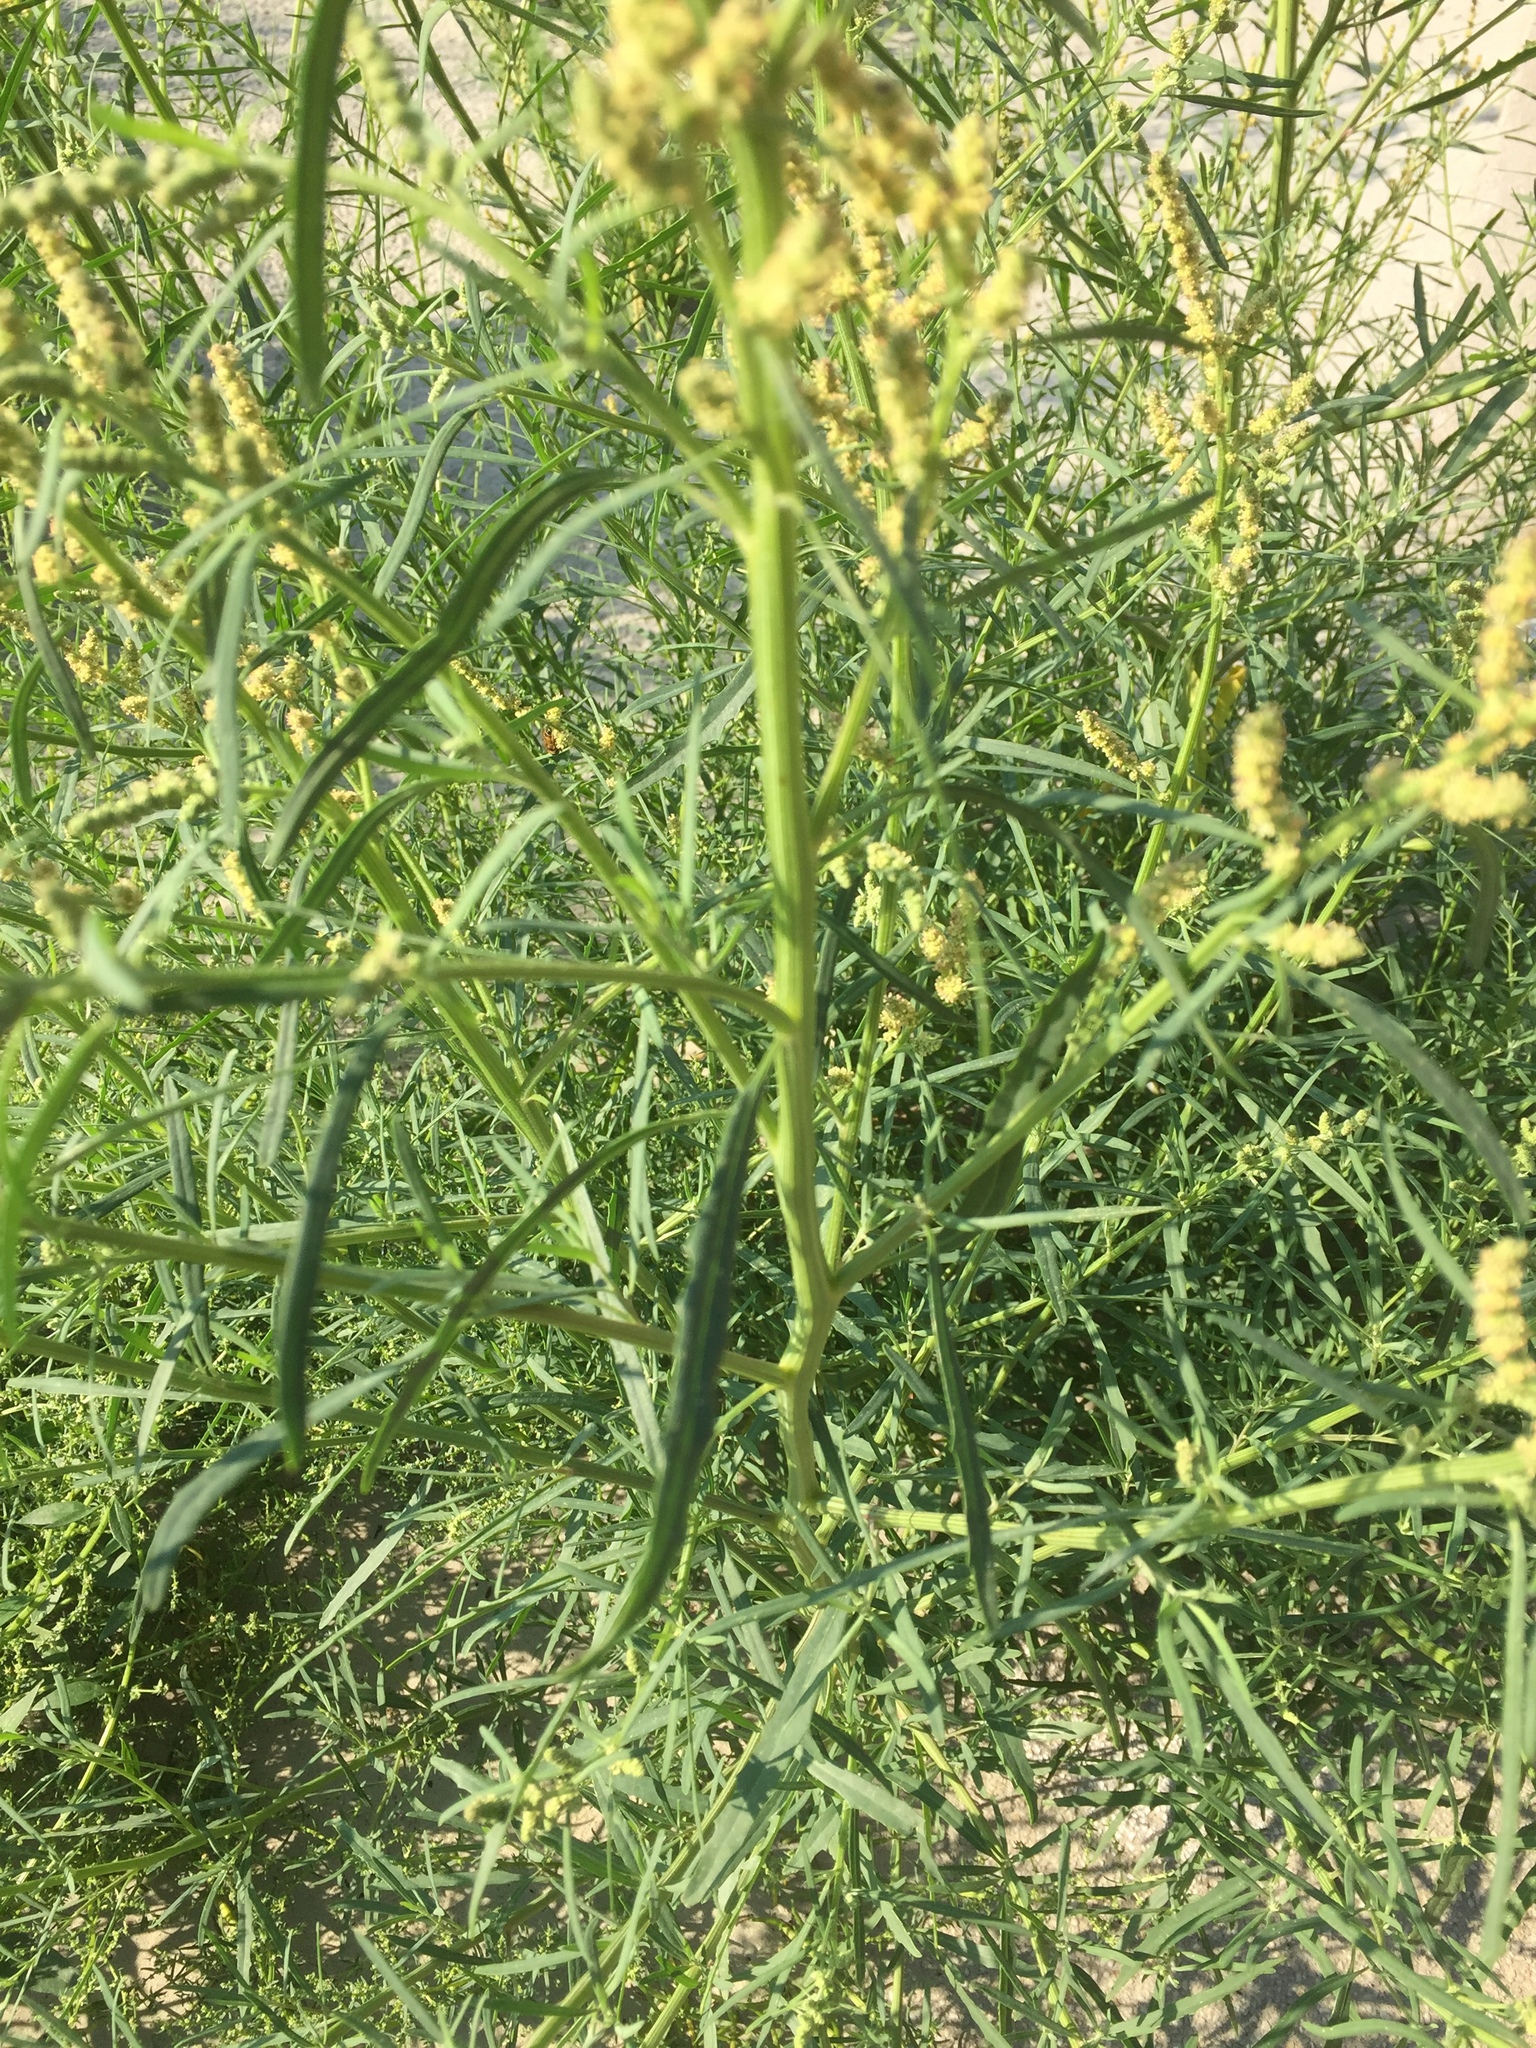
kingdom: Plantae
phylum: Tracheophyta
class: Magnoliopsida
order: Caryophyllales
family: Amaranthaceae
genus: Atriplex
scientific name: Atriplex littoralis
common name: Grass-leaved orache
